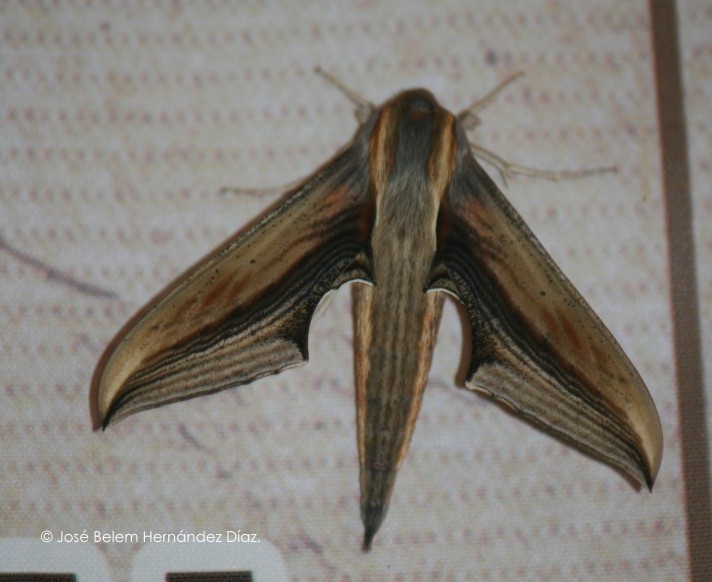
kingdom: Animalia
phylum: Arthropoda
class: Insecta
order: Lepidoptera
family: Sphingidae
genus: Xylophanes
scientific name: Xylophanes falco
